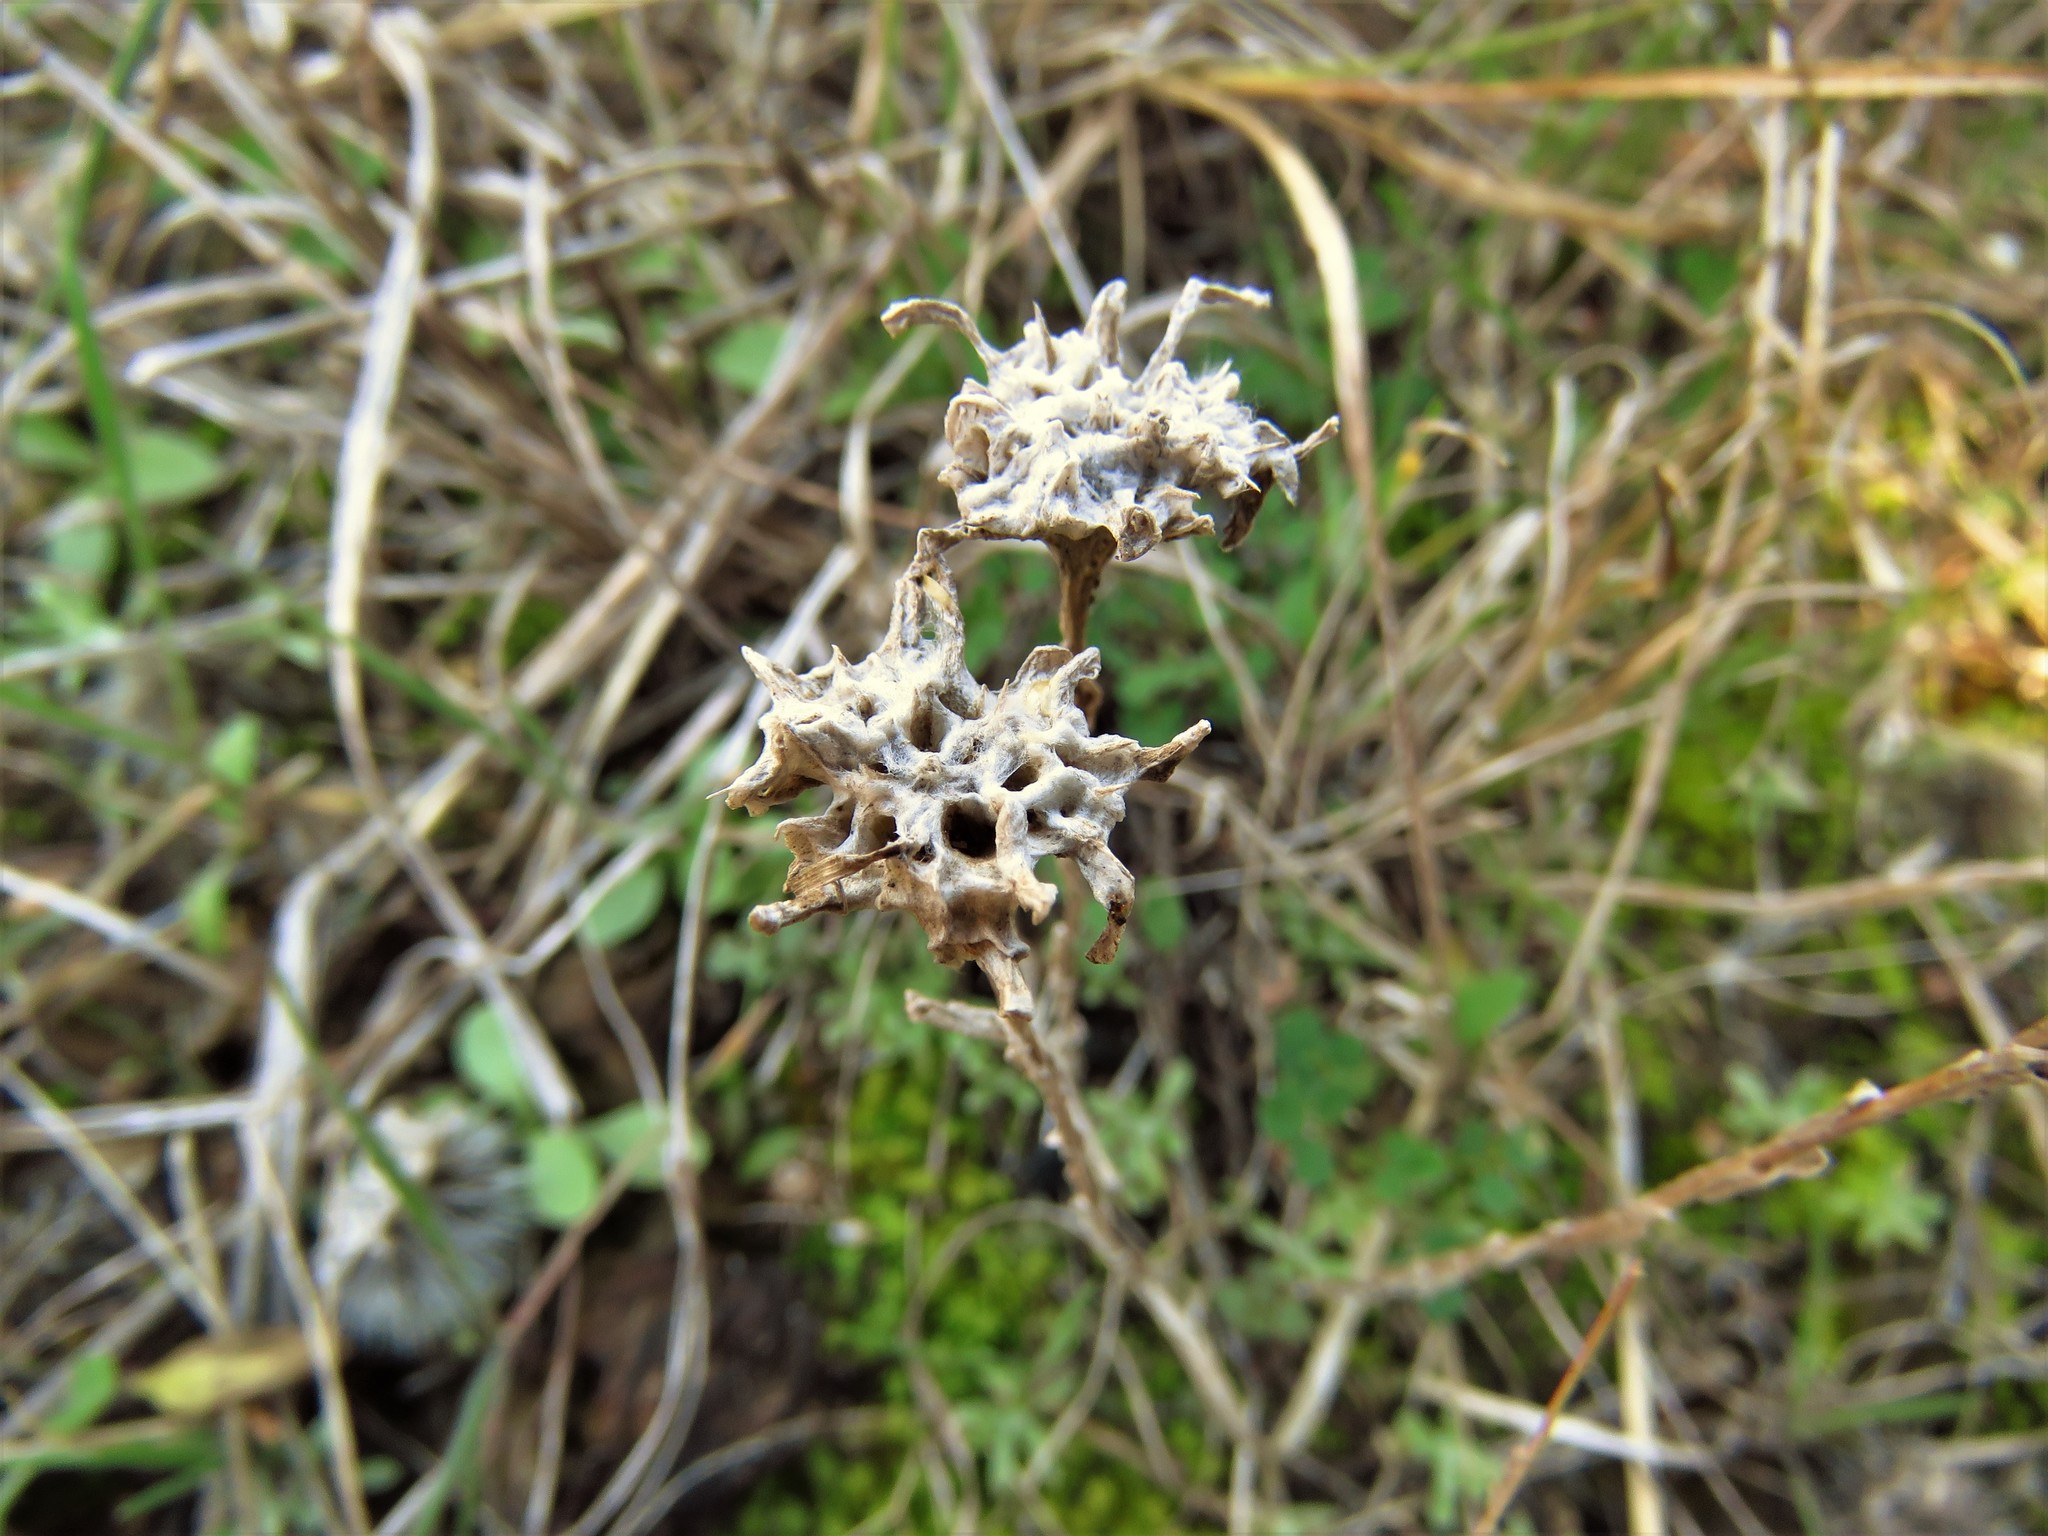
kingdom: Plantae
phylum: Tracheophyta
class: Magnoliopsida
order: Asterales
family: Asteraceae
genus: Diaperia
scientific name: Diaperia prolifera
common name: Big-head rabbit-tobacco
